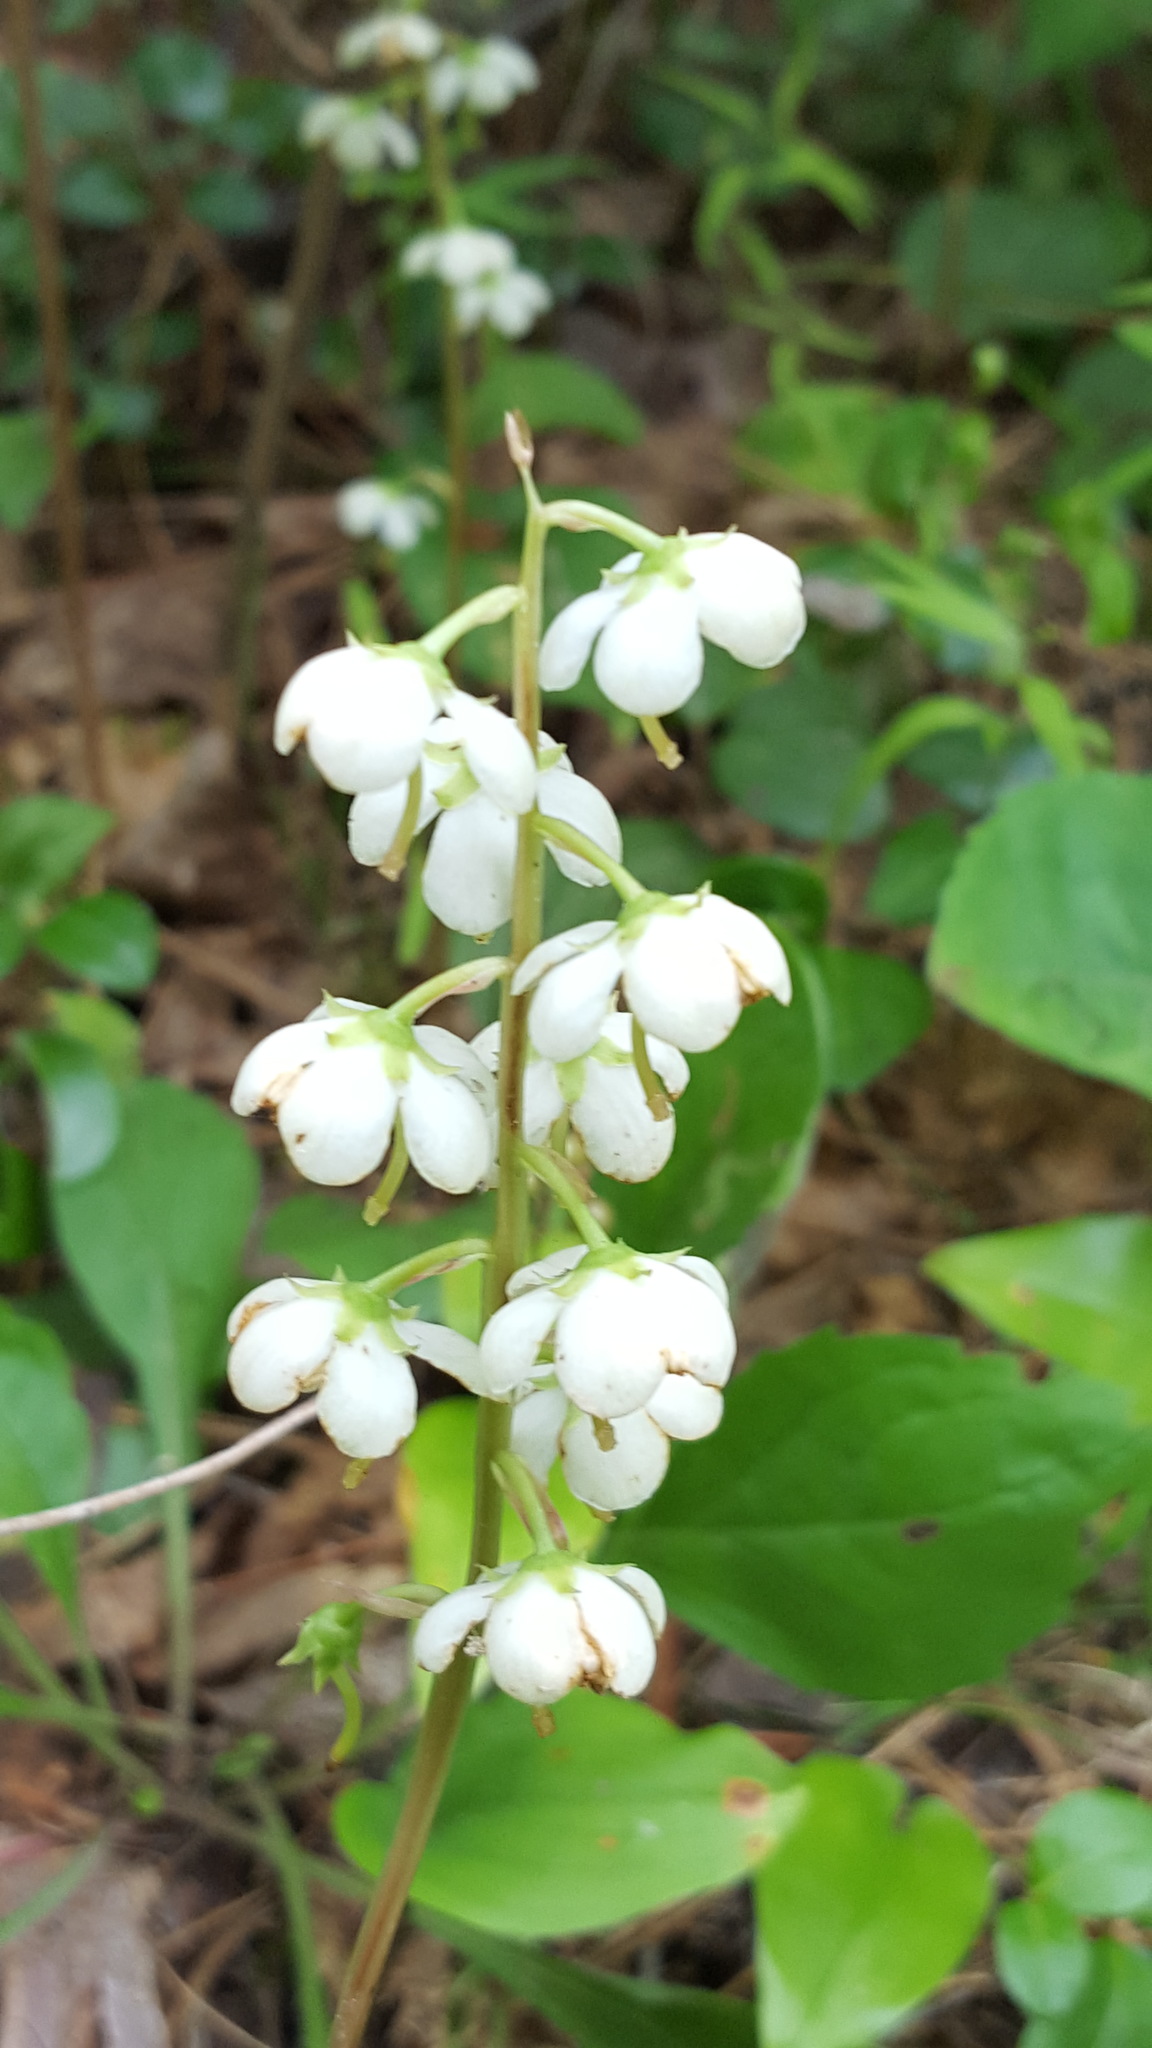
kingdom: Plantae
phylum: Tracheophyta
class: Magnoliopsida
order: Ericales
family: Ericaceae
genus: Pyrola
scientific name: Pyrola americana
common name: American wintergreen
